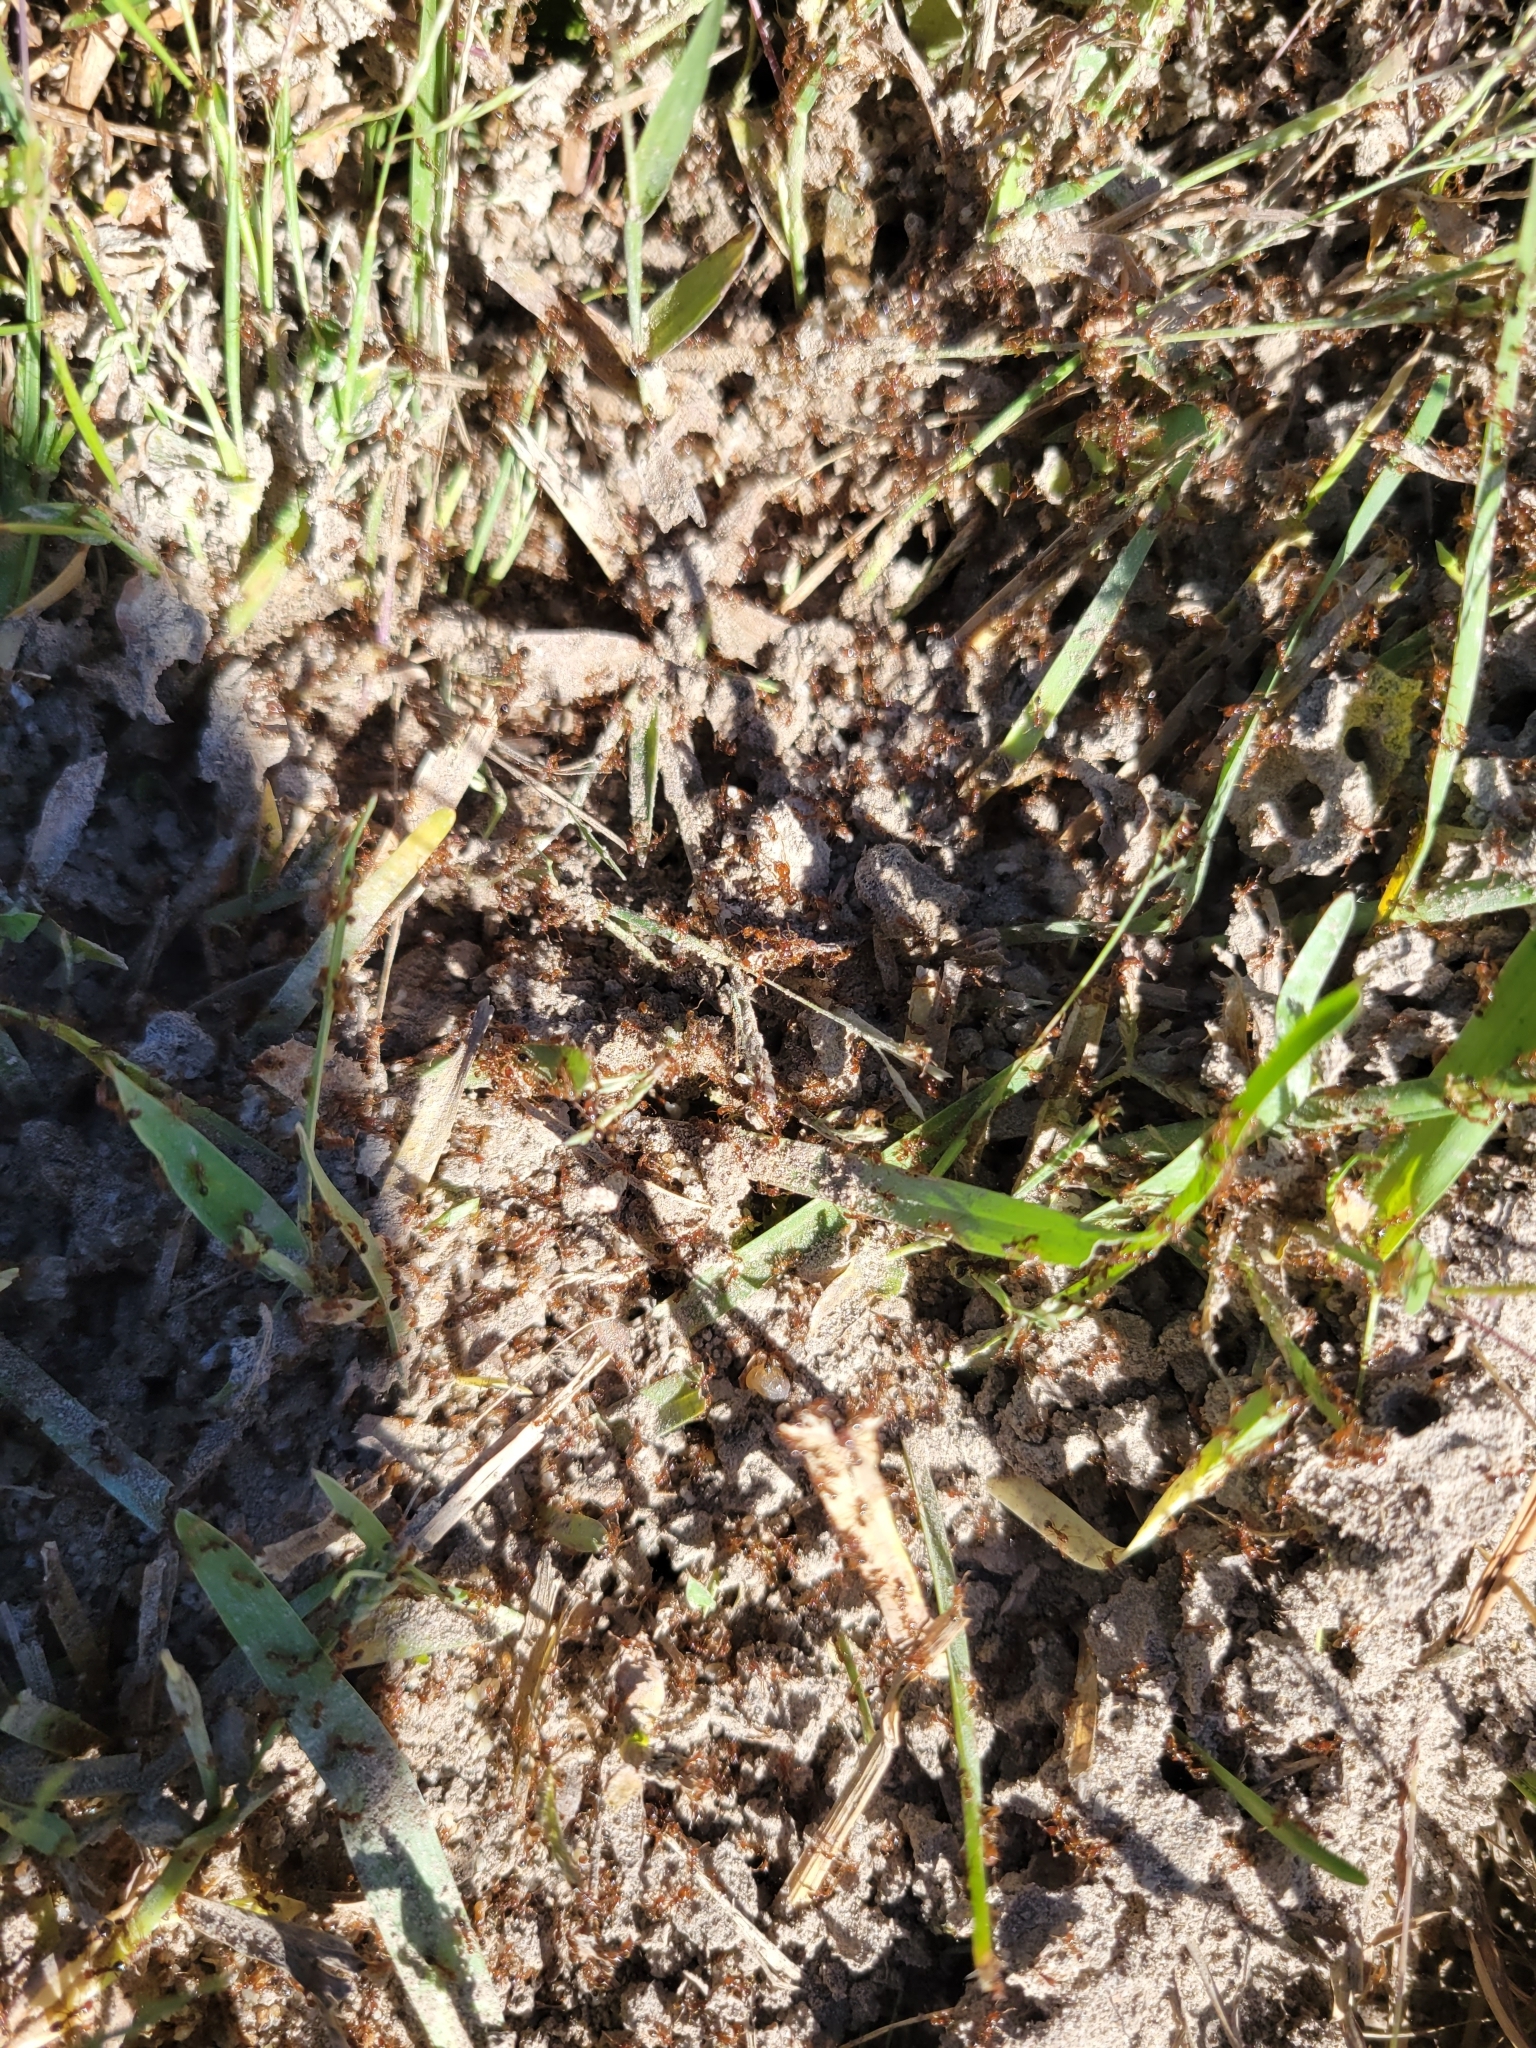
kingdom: Animalia
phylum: Arthropoda
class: Insecta
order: Hymenoptera
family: Formicidae
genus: Solenopsis
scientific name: Solenopsis invicta
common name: Red imported fire ant
